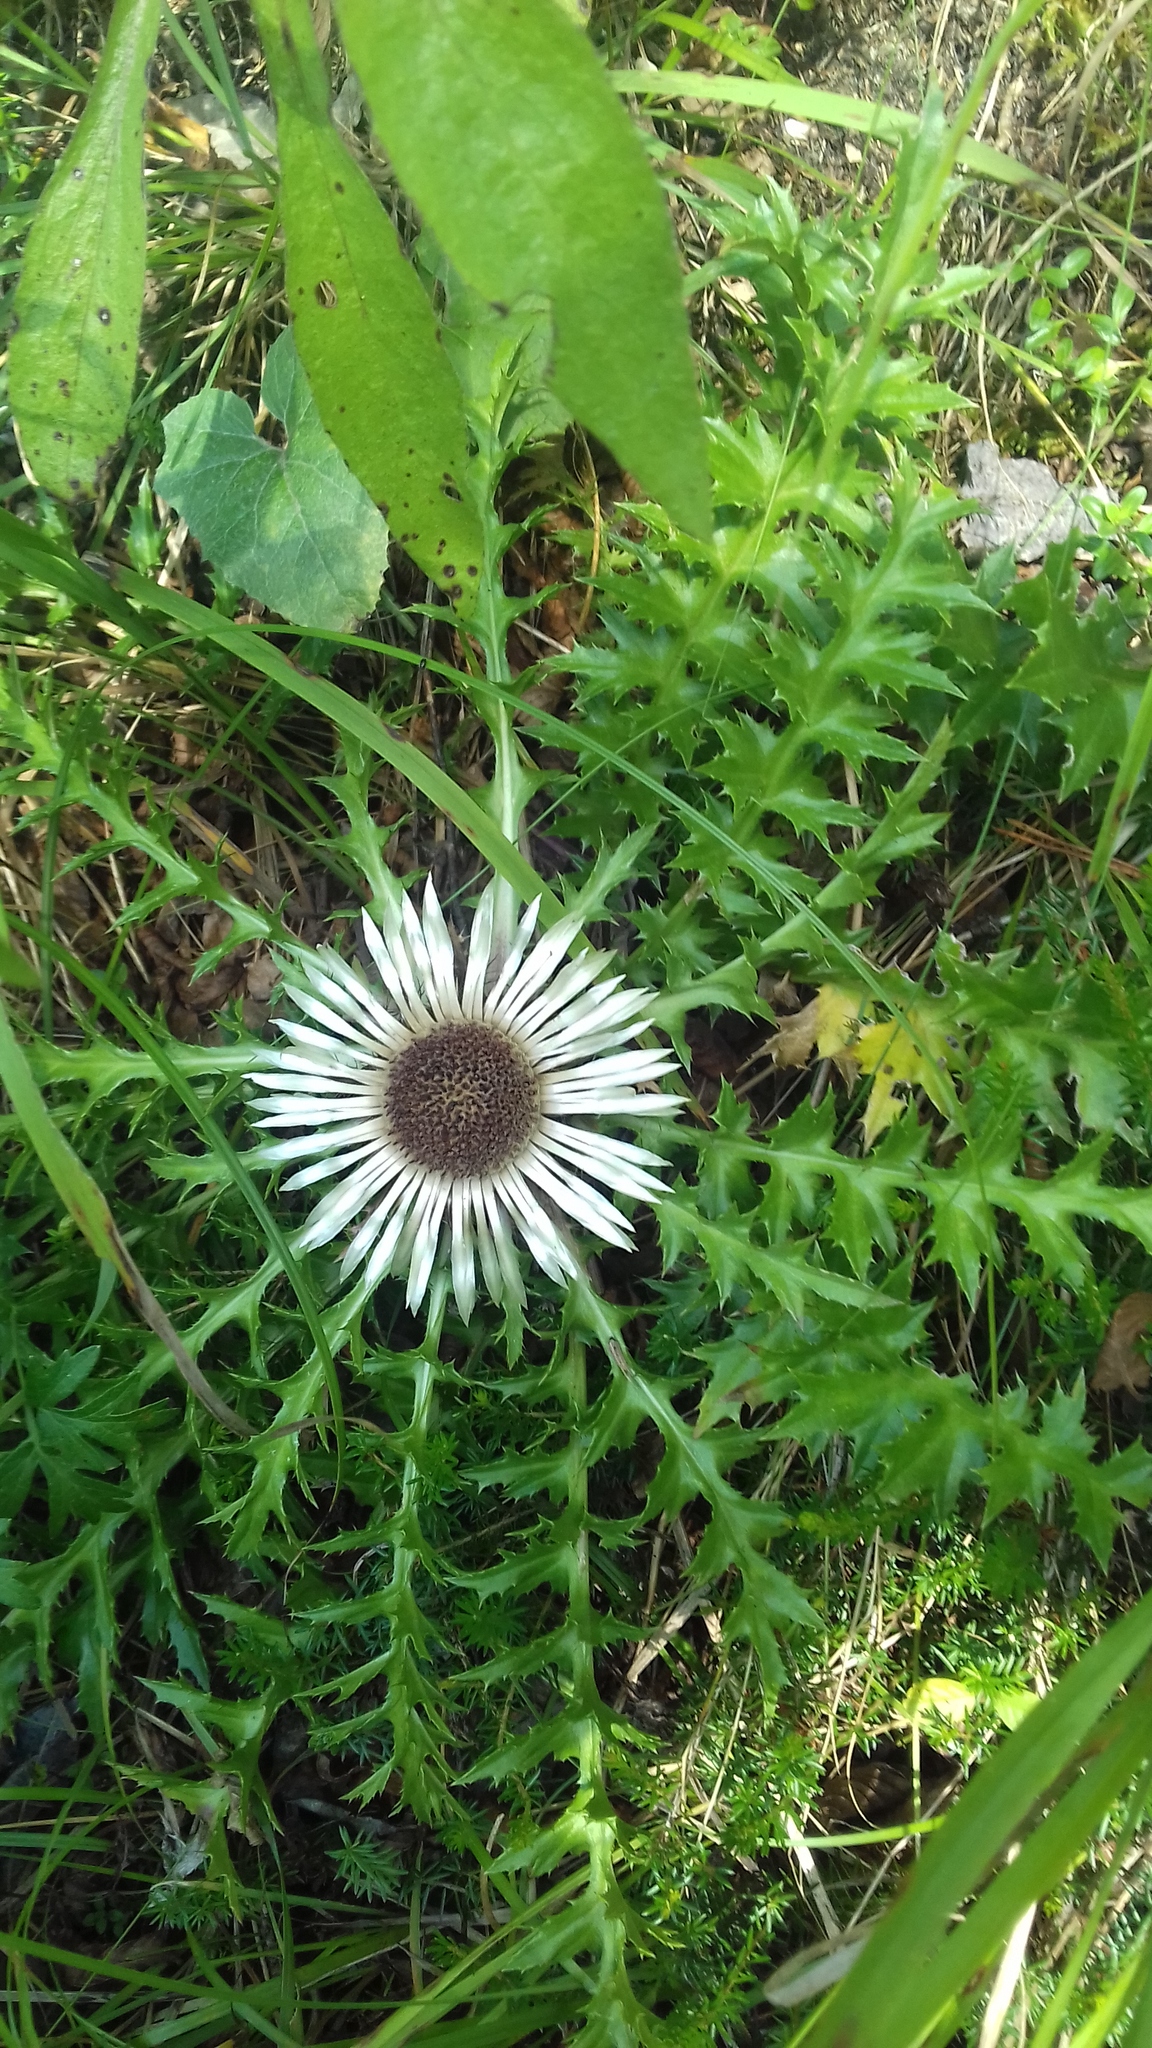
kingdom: Plantae
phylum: Tracheophyta
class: Magnoliopsida
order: Asterales
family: Asteraceae
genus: Carlina
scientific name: Carlina acaulis
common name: Stemless carline thistle
